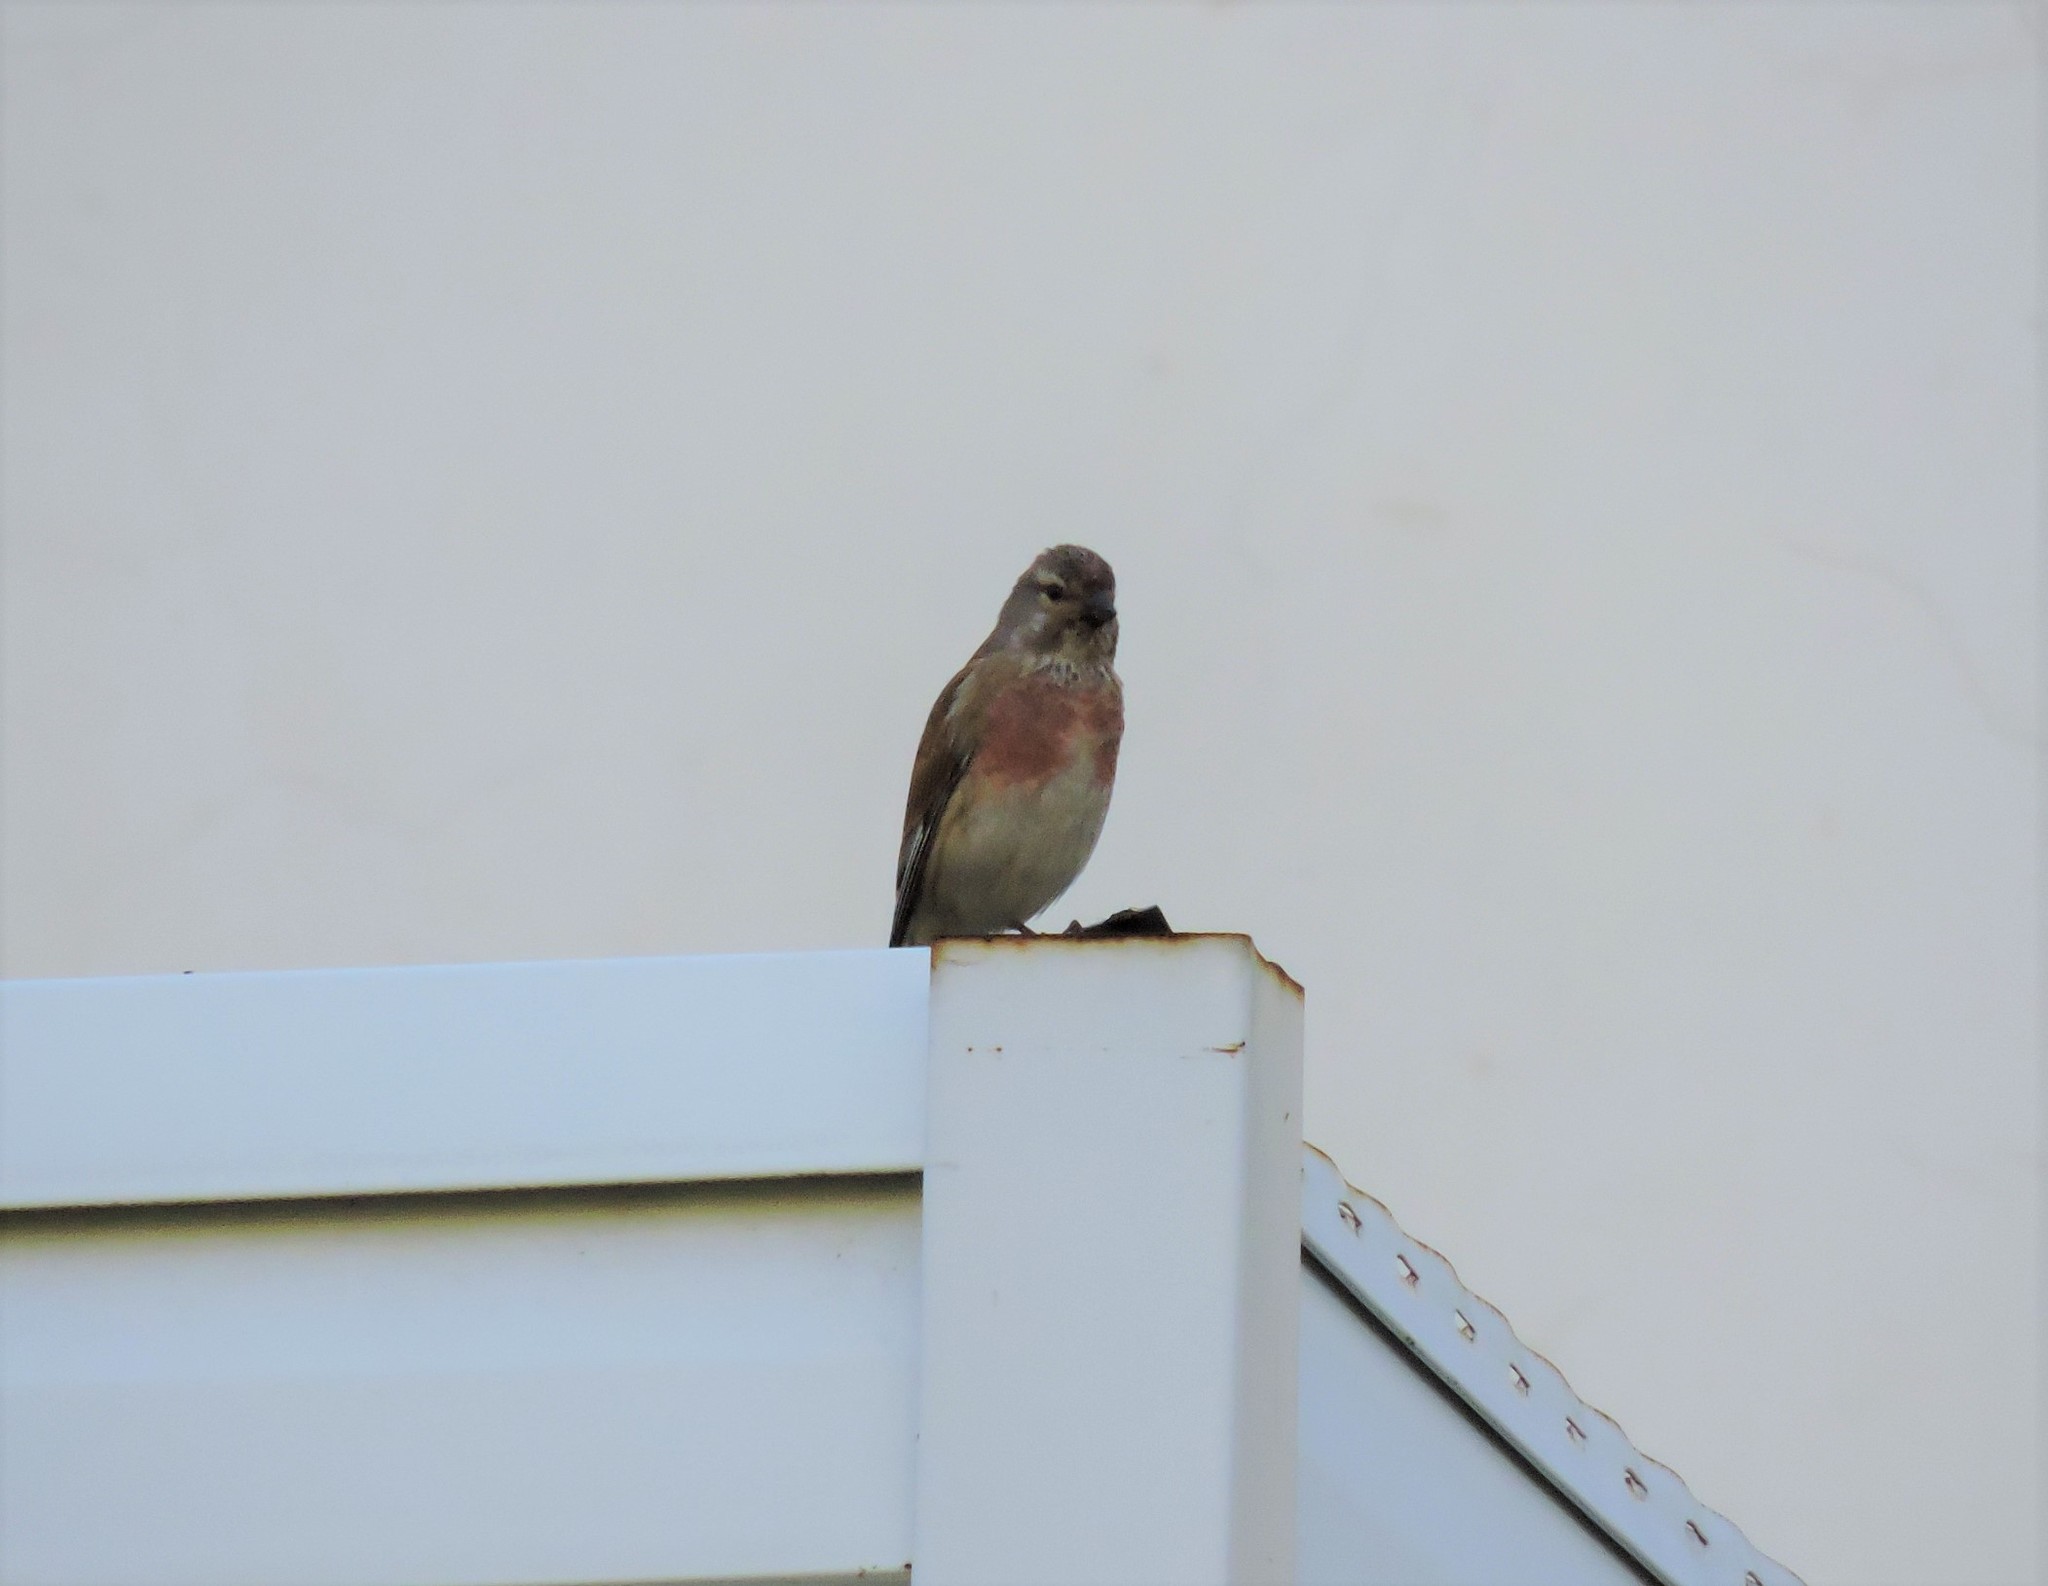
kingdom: Animalia
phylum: Chordata
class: Aves
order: Passeriformes
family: Fringillidae
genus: Linaria
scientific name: Linaria cannabina
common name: Common linnet
